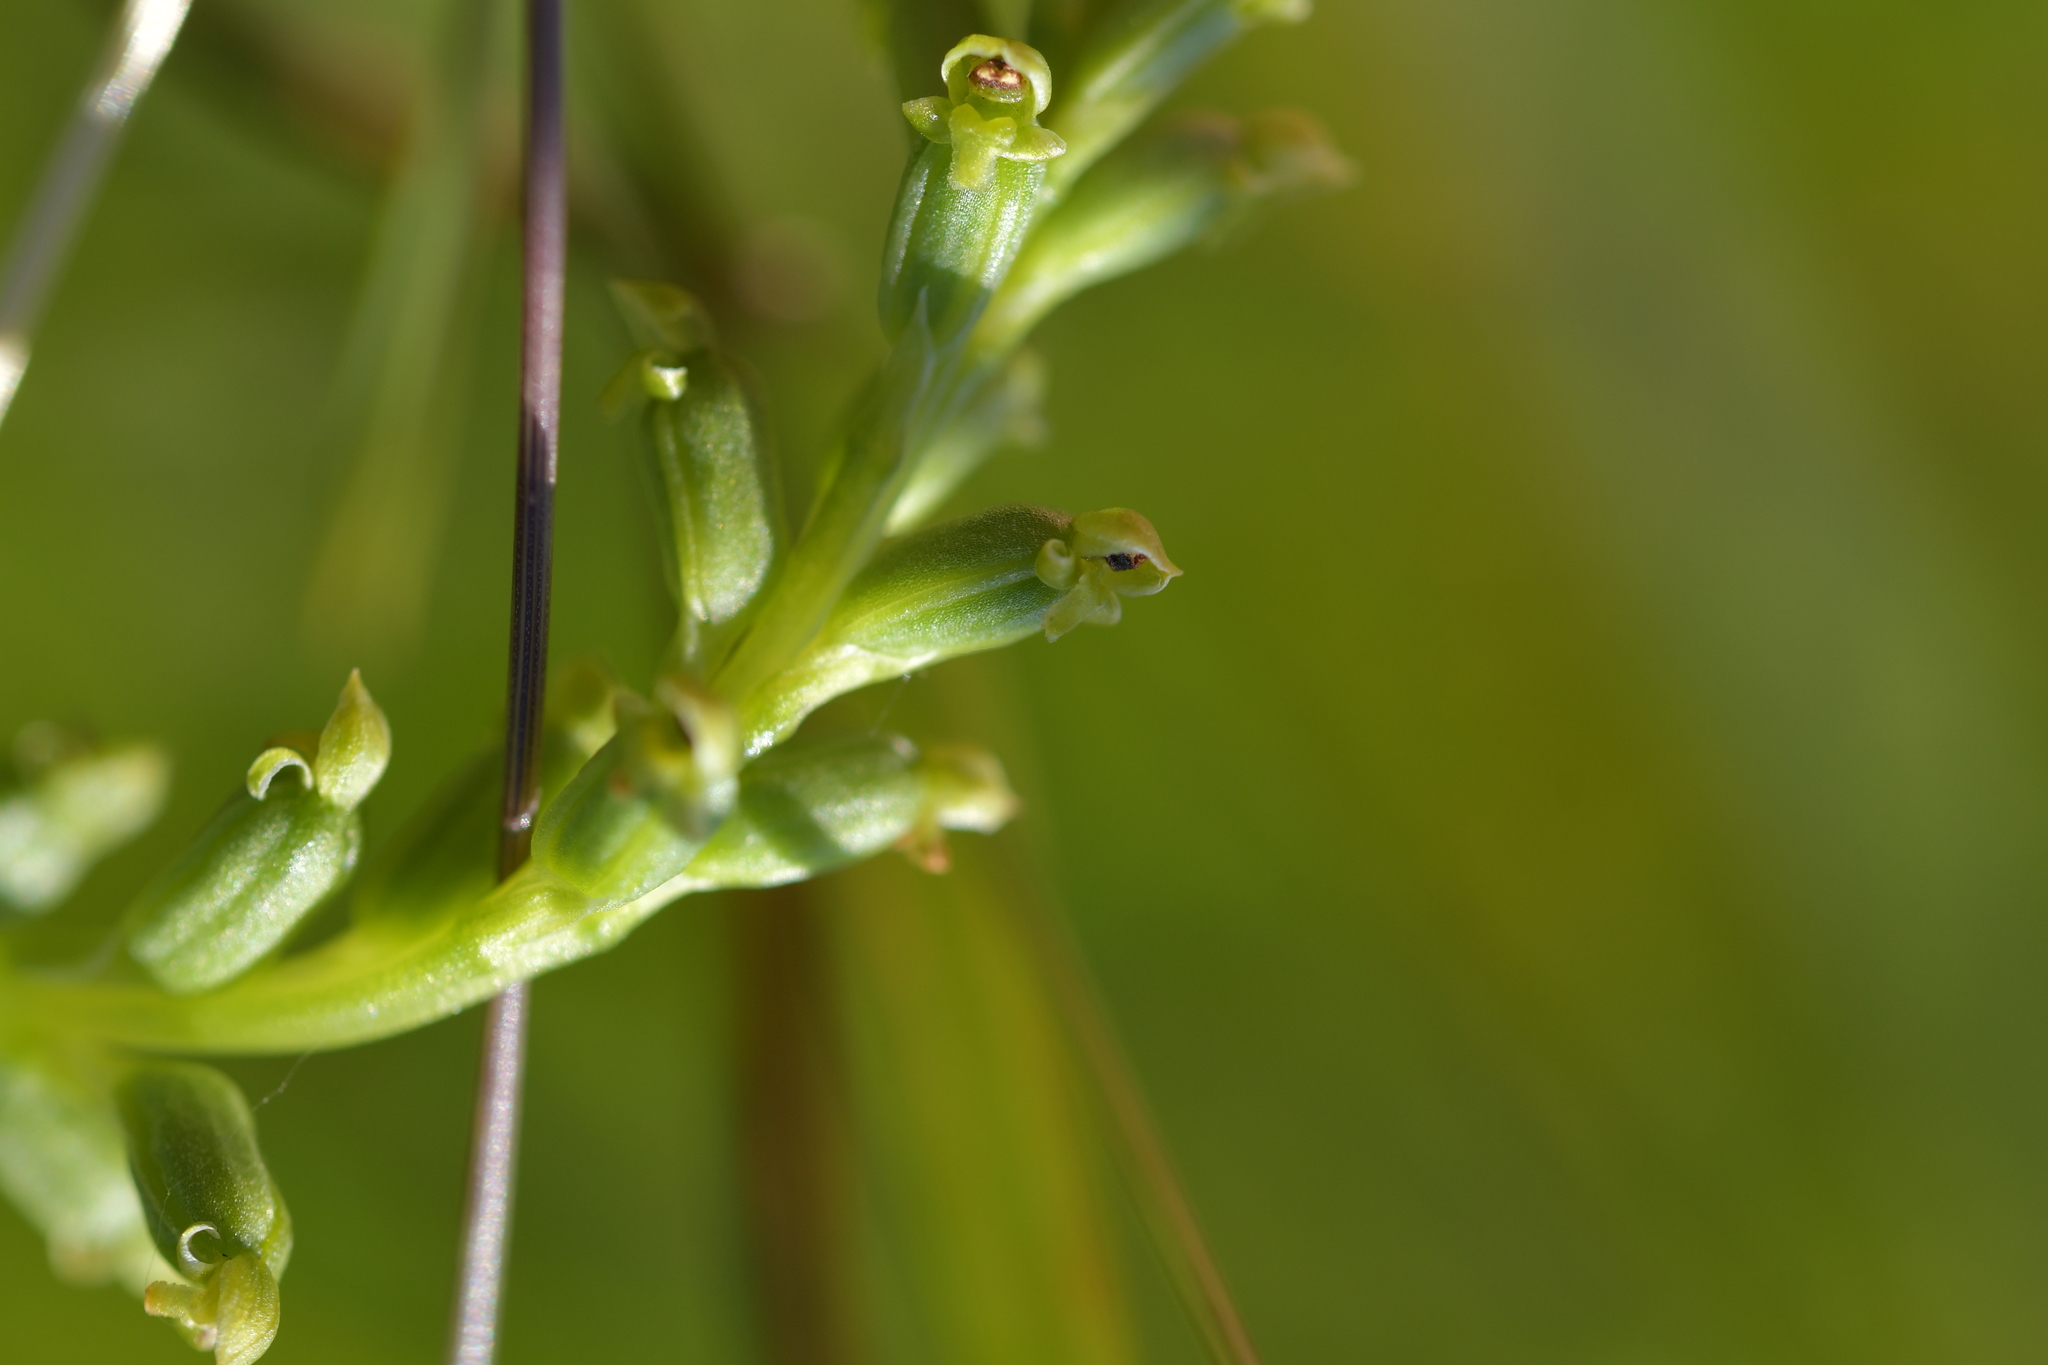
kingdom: Plantae
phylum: Tracheophyta
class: Liliopsida
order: Asparagales
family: Orchidaceae
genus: Microtis
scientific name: Microtis unifolia
